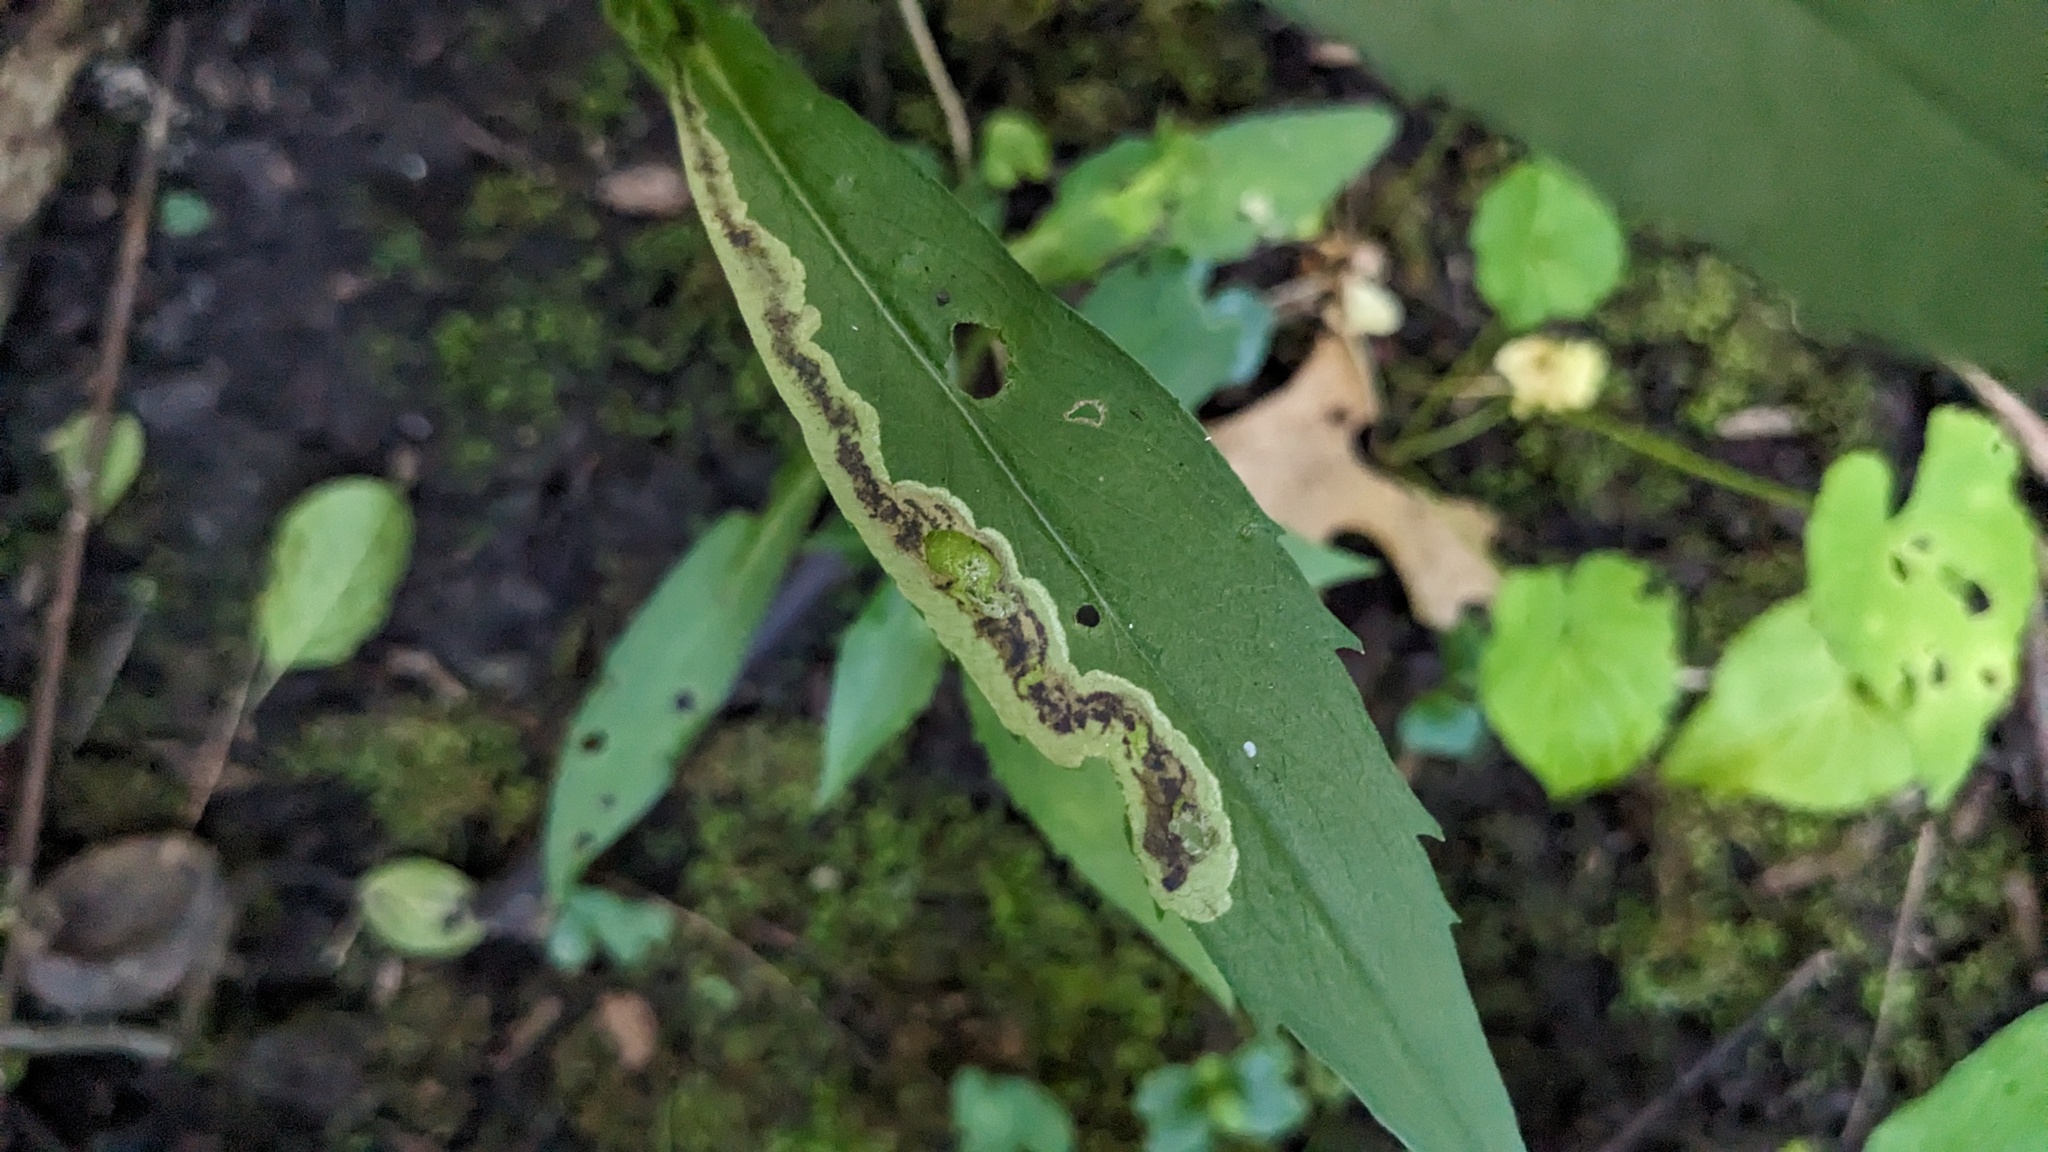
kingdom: Animalia
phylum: Arthropoda
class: Insecta
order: Diptera
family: Agromyzidae
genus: Nemorimyza
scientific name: Nemorimyza posticata
